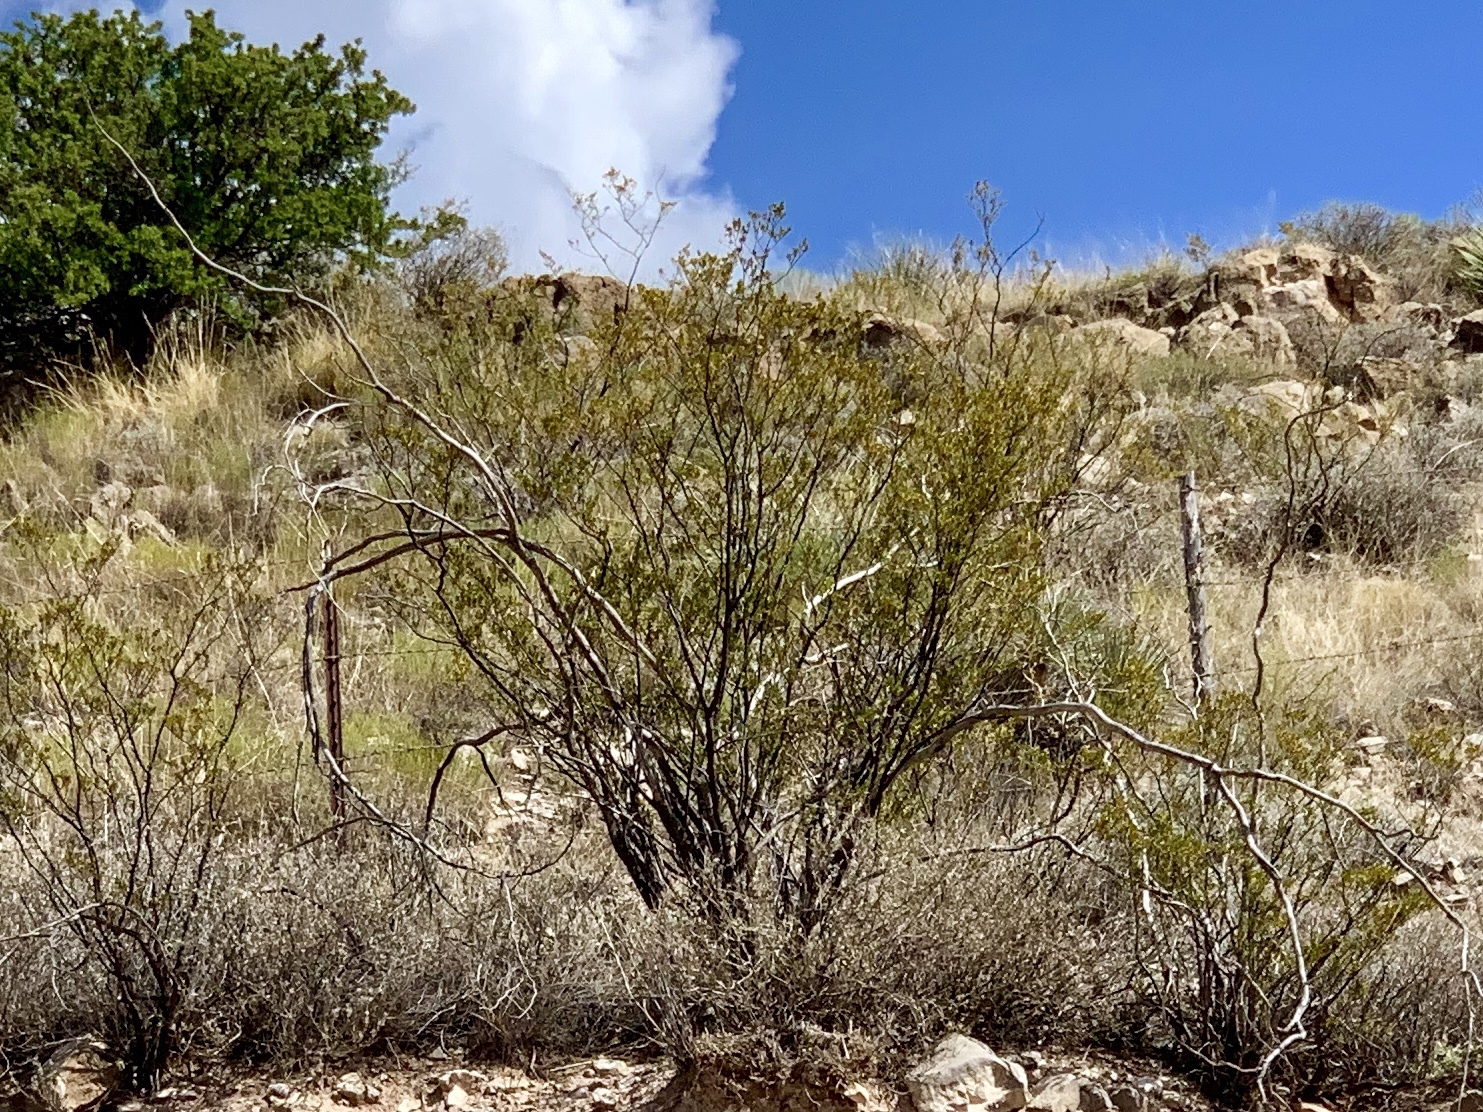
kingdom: Plantae
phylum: Tracheophyta
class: Magnoliopsida
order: Zygophyllales
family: Zygophyllaceae
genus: Larrea
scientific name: Larrea tridentata
